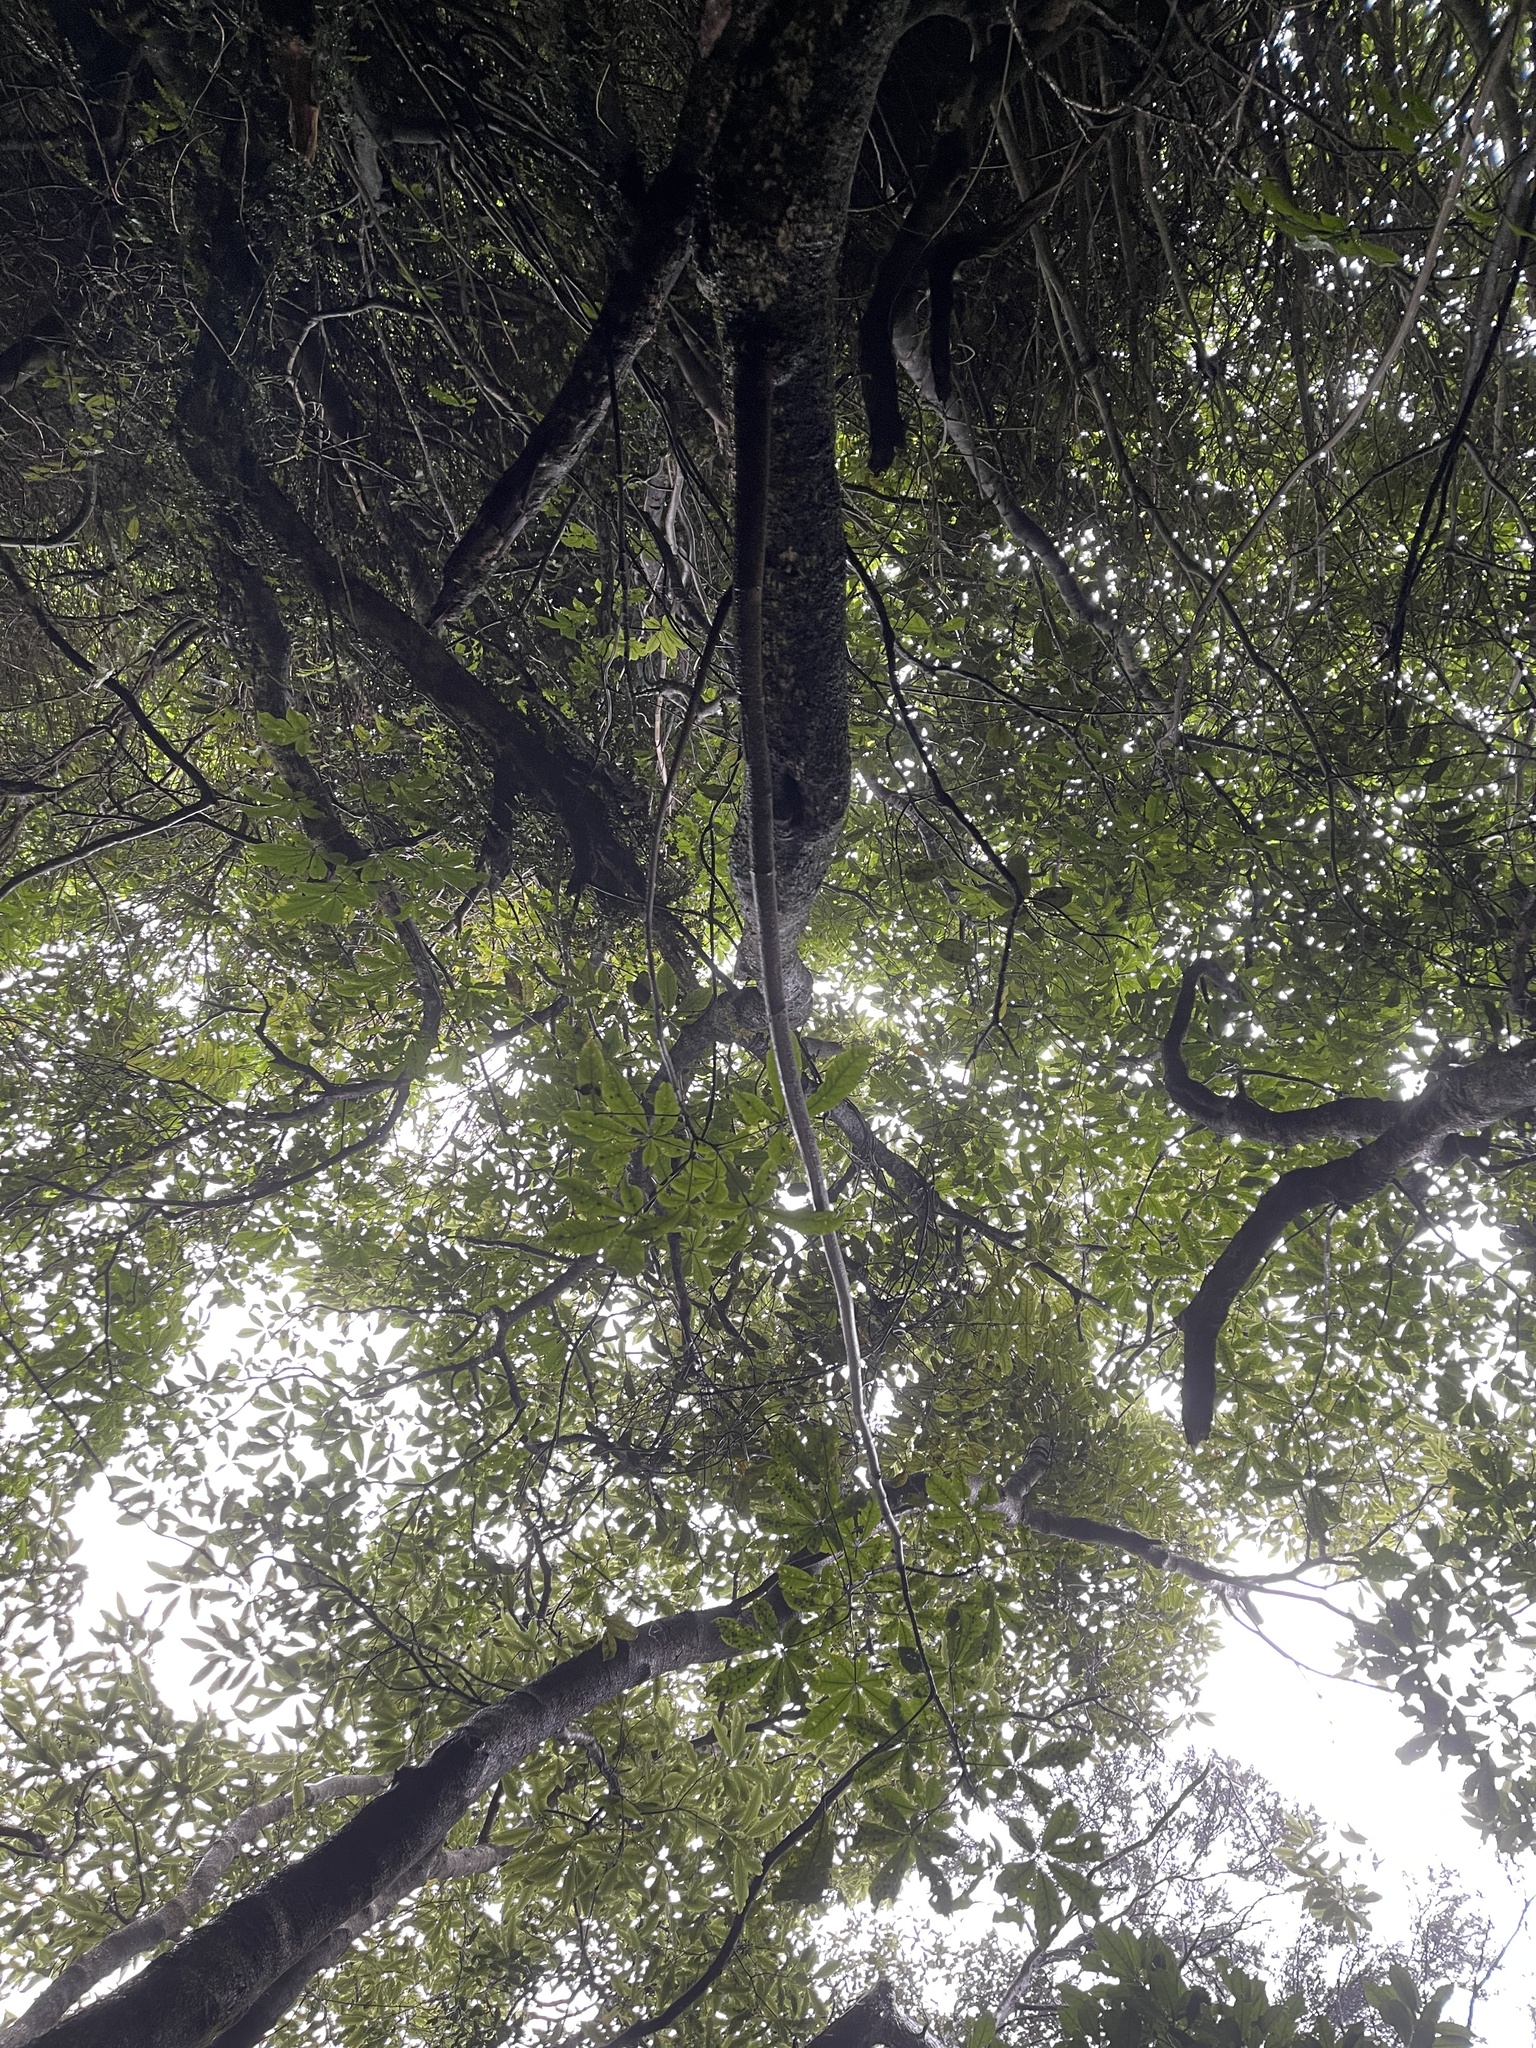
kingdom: Plantae
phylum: Tracheophyta
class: Magnoliopsida
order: Apiales
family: Araliaceae
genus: Schefflera
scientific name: Schefflera digitata
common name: Pate
